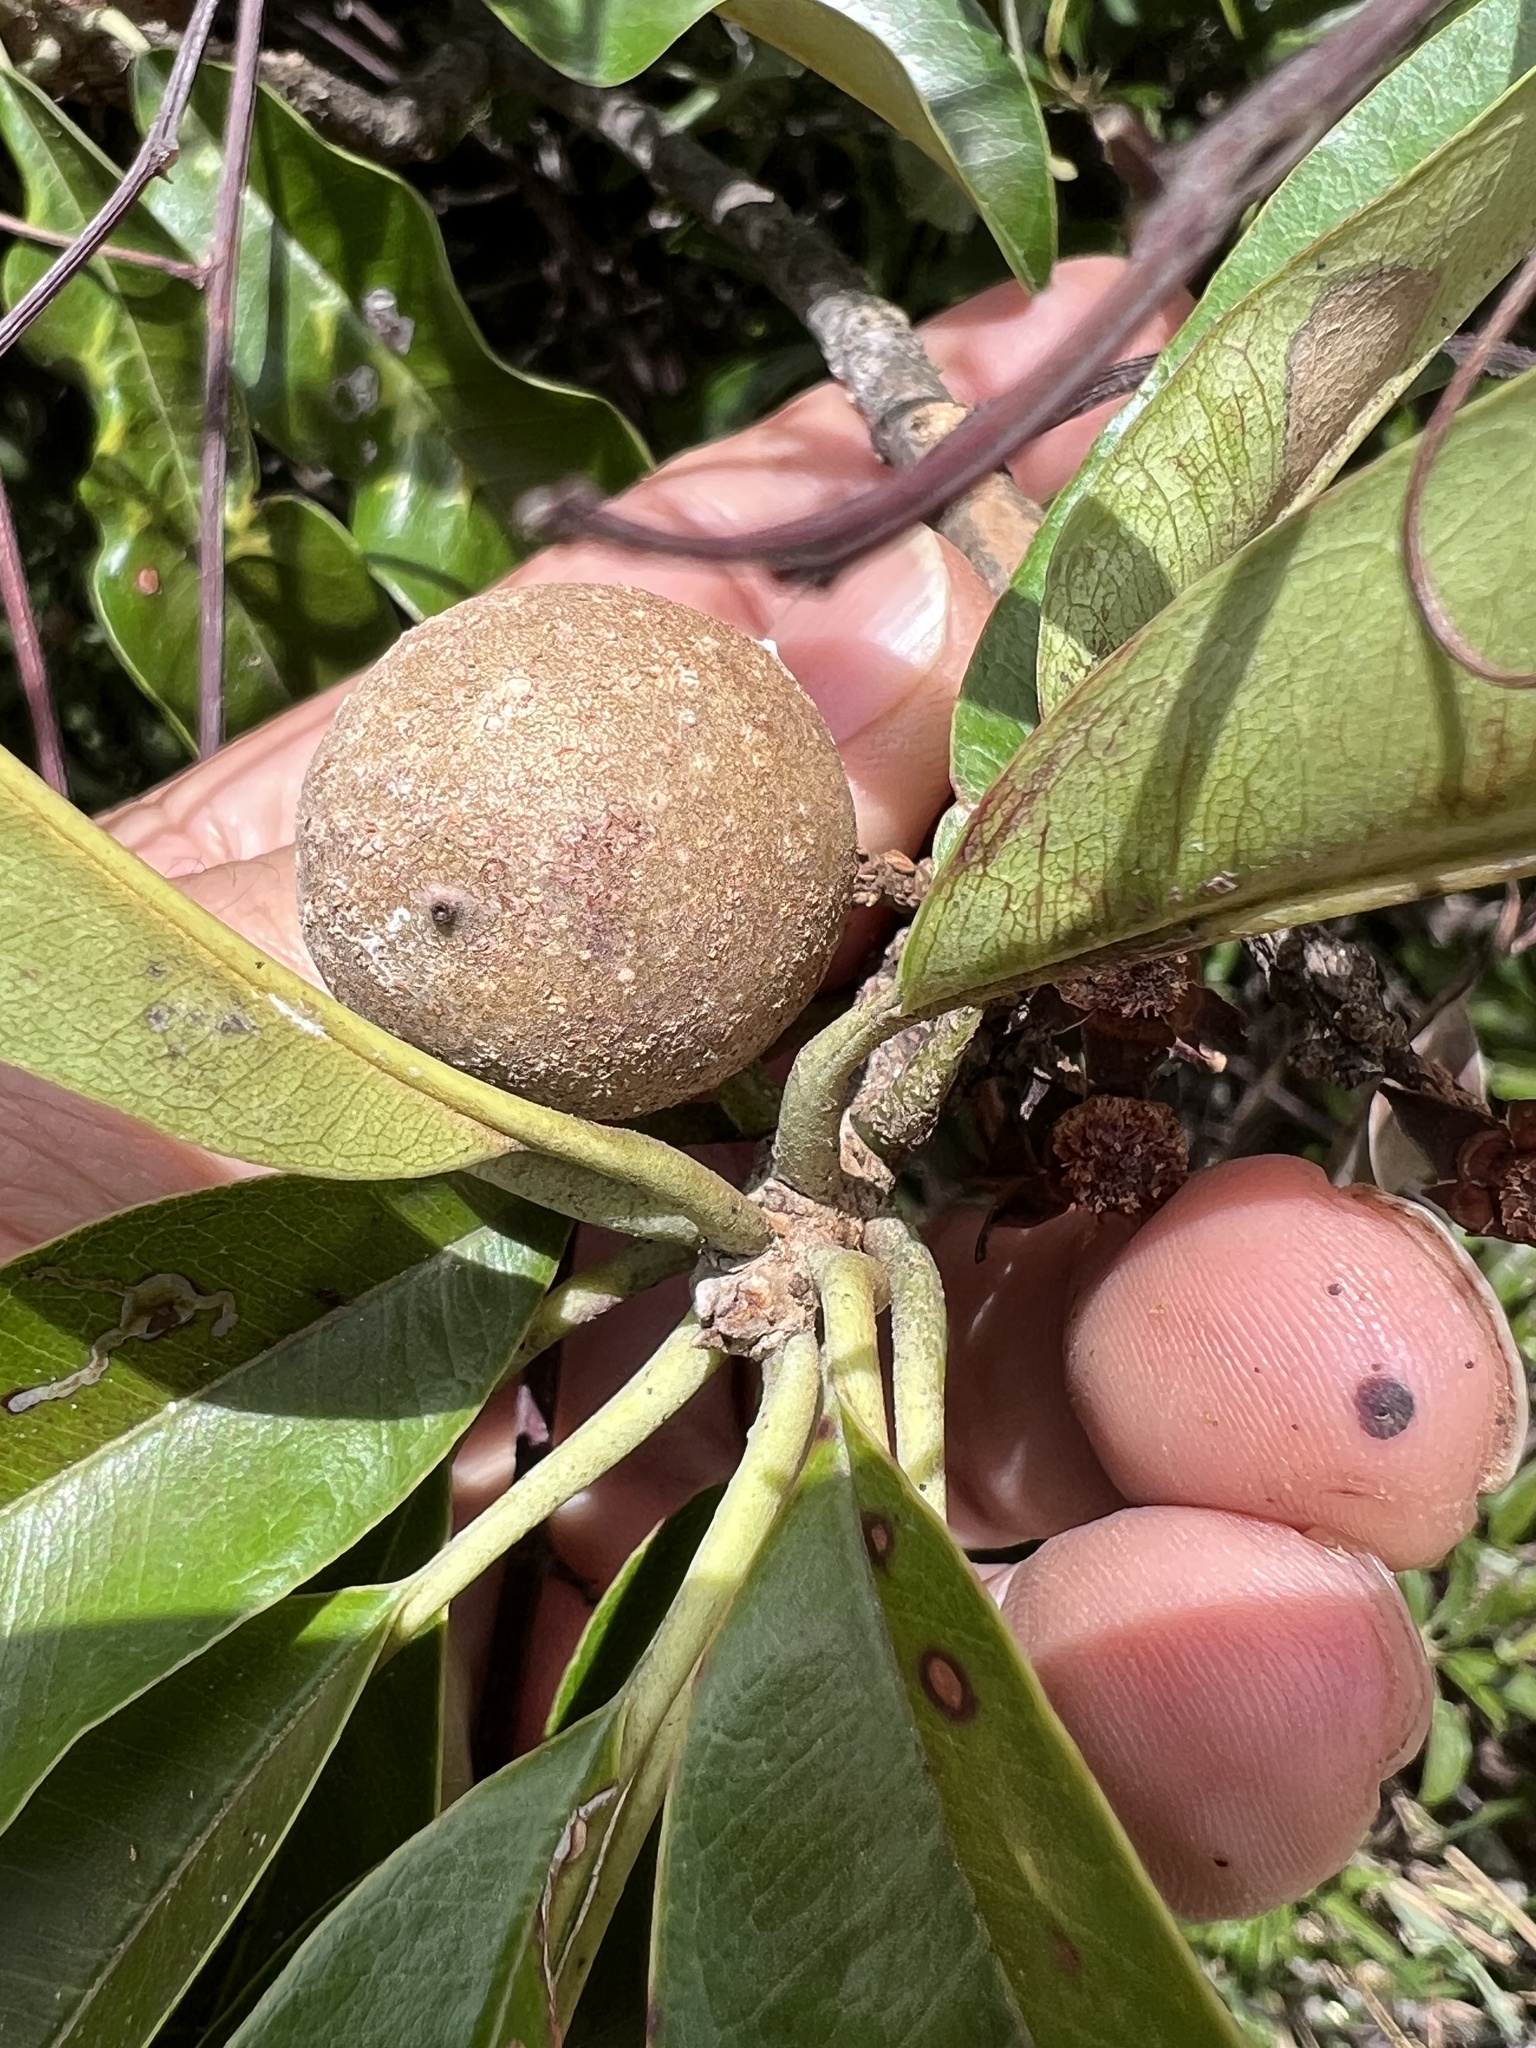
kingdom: Plantae
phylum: Tracheophyta
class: Magnoliopsida
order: Ericales
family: Sapotaceae
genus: Manilkara
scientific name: Manilkara chicle
